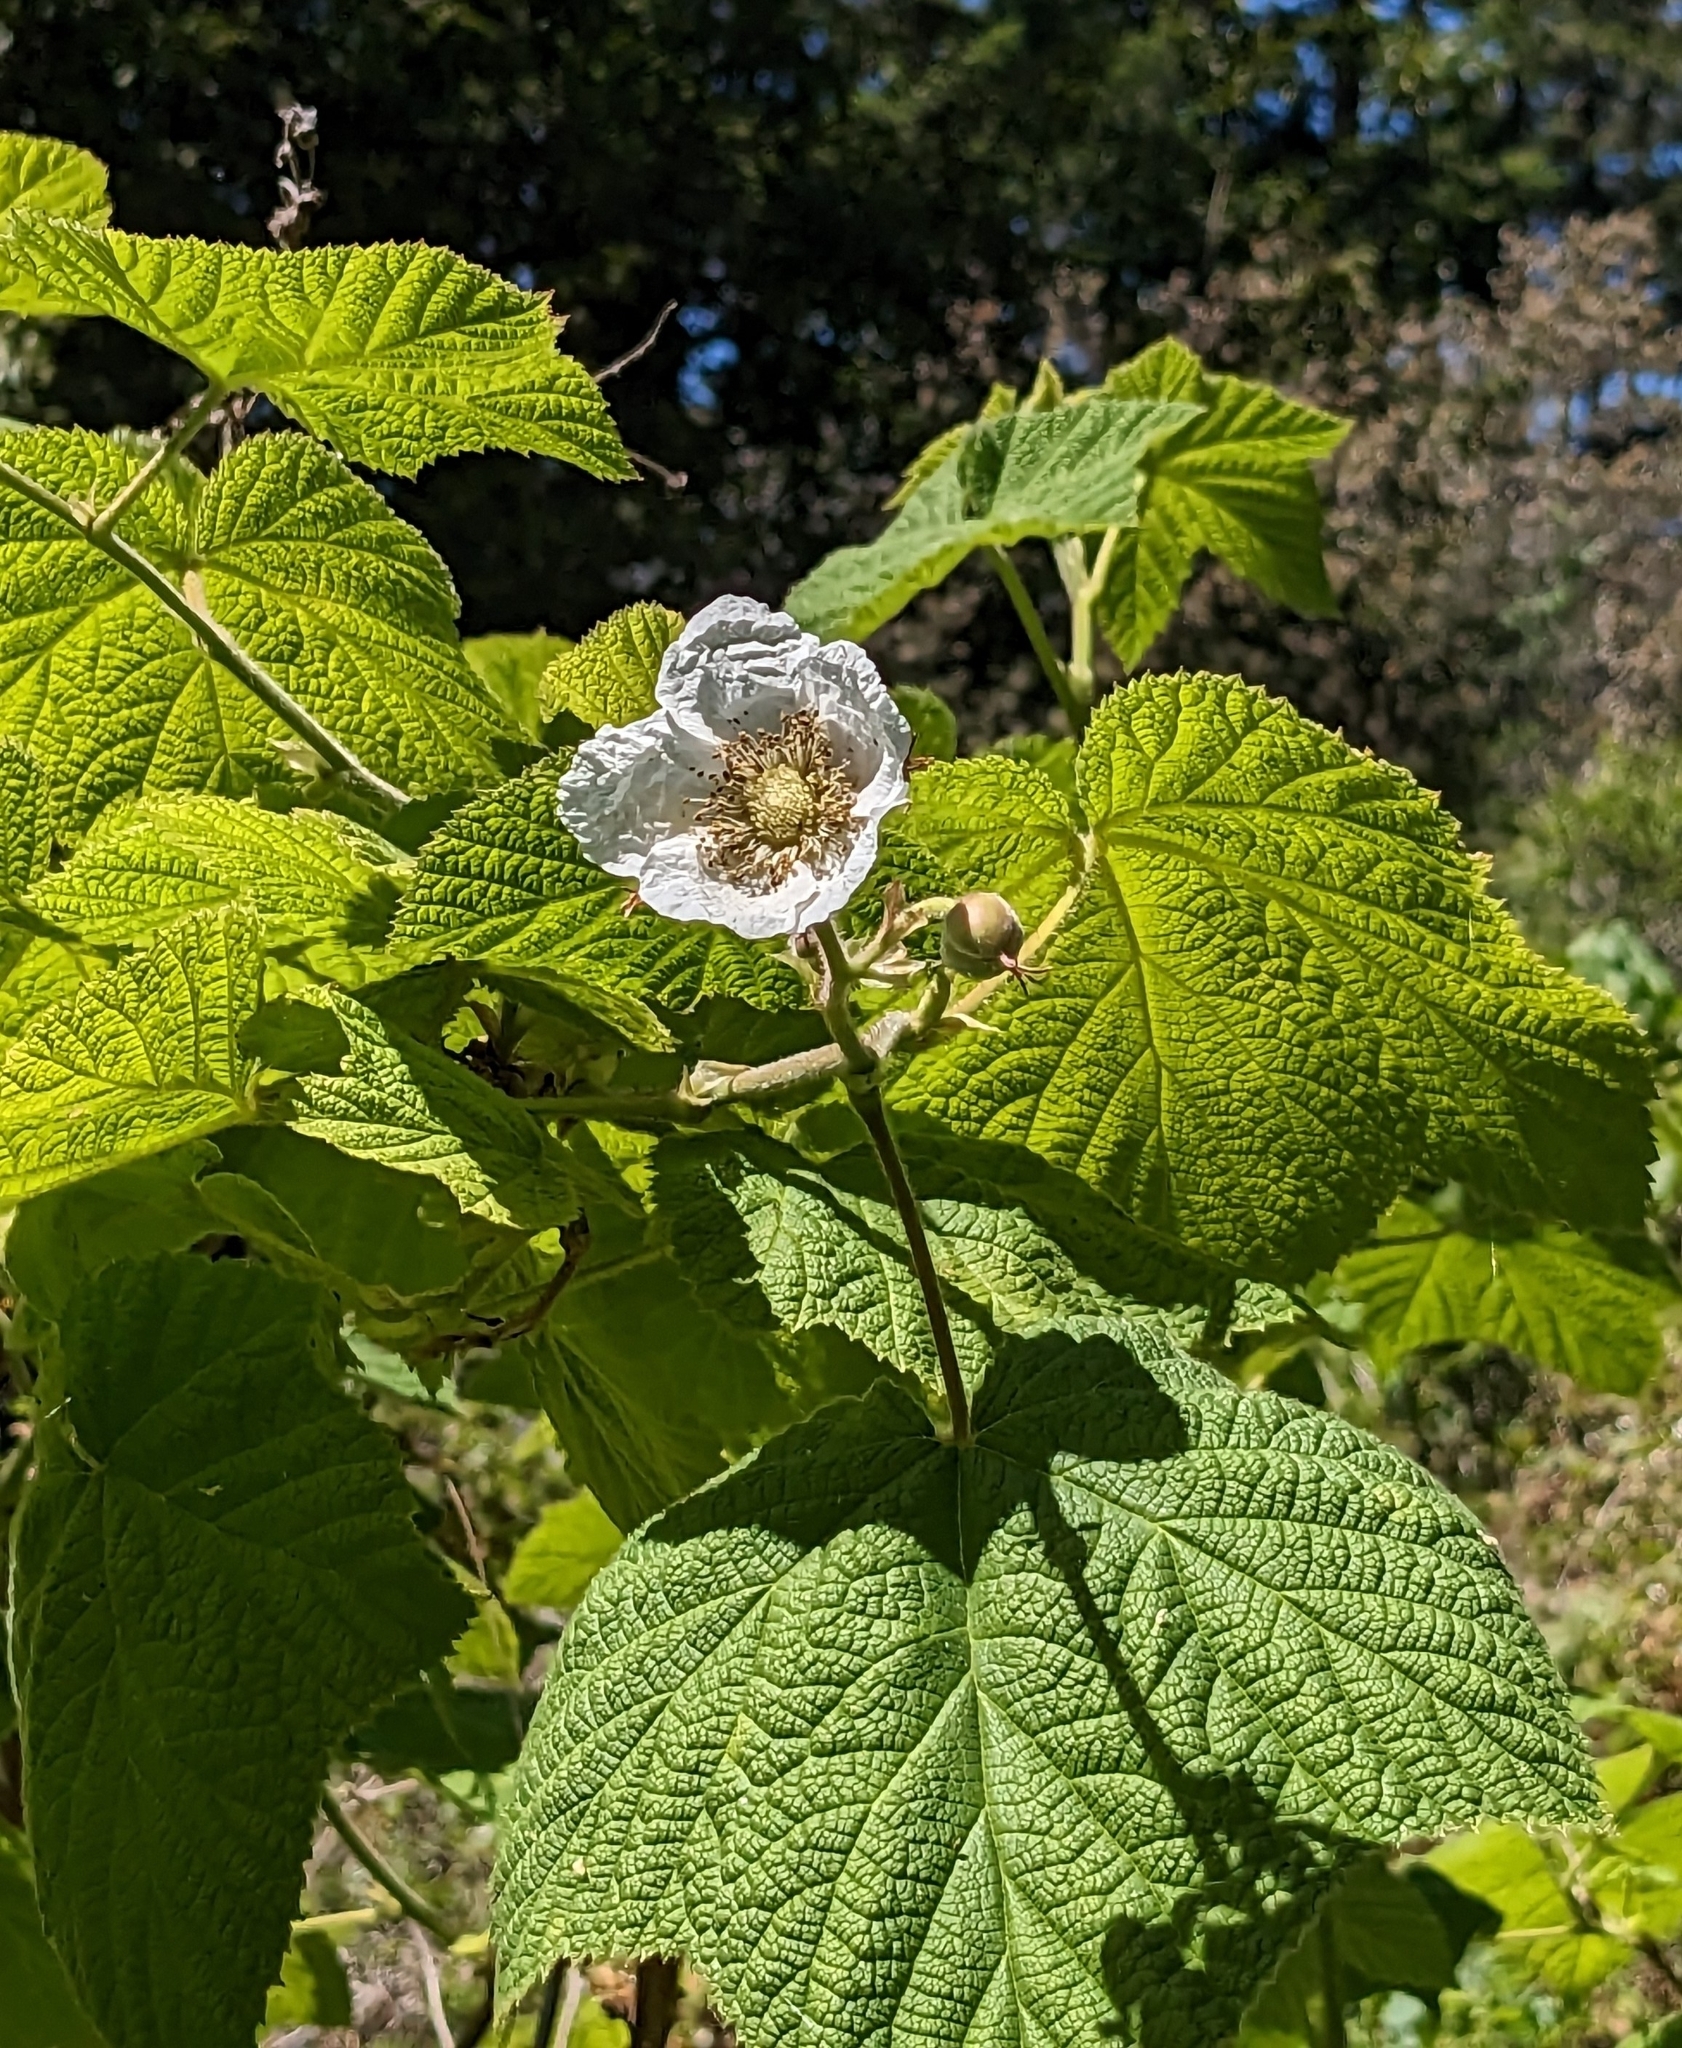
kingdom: Plantae
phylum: Tracheophyta
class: Magnoliopsida
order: Rosales
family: Rosaceae
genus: Rubus
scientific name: Rubus parviflorus
